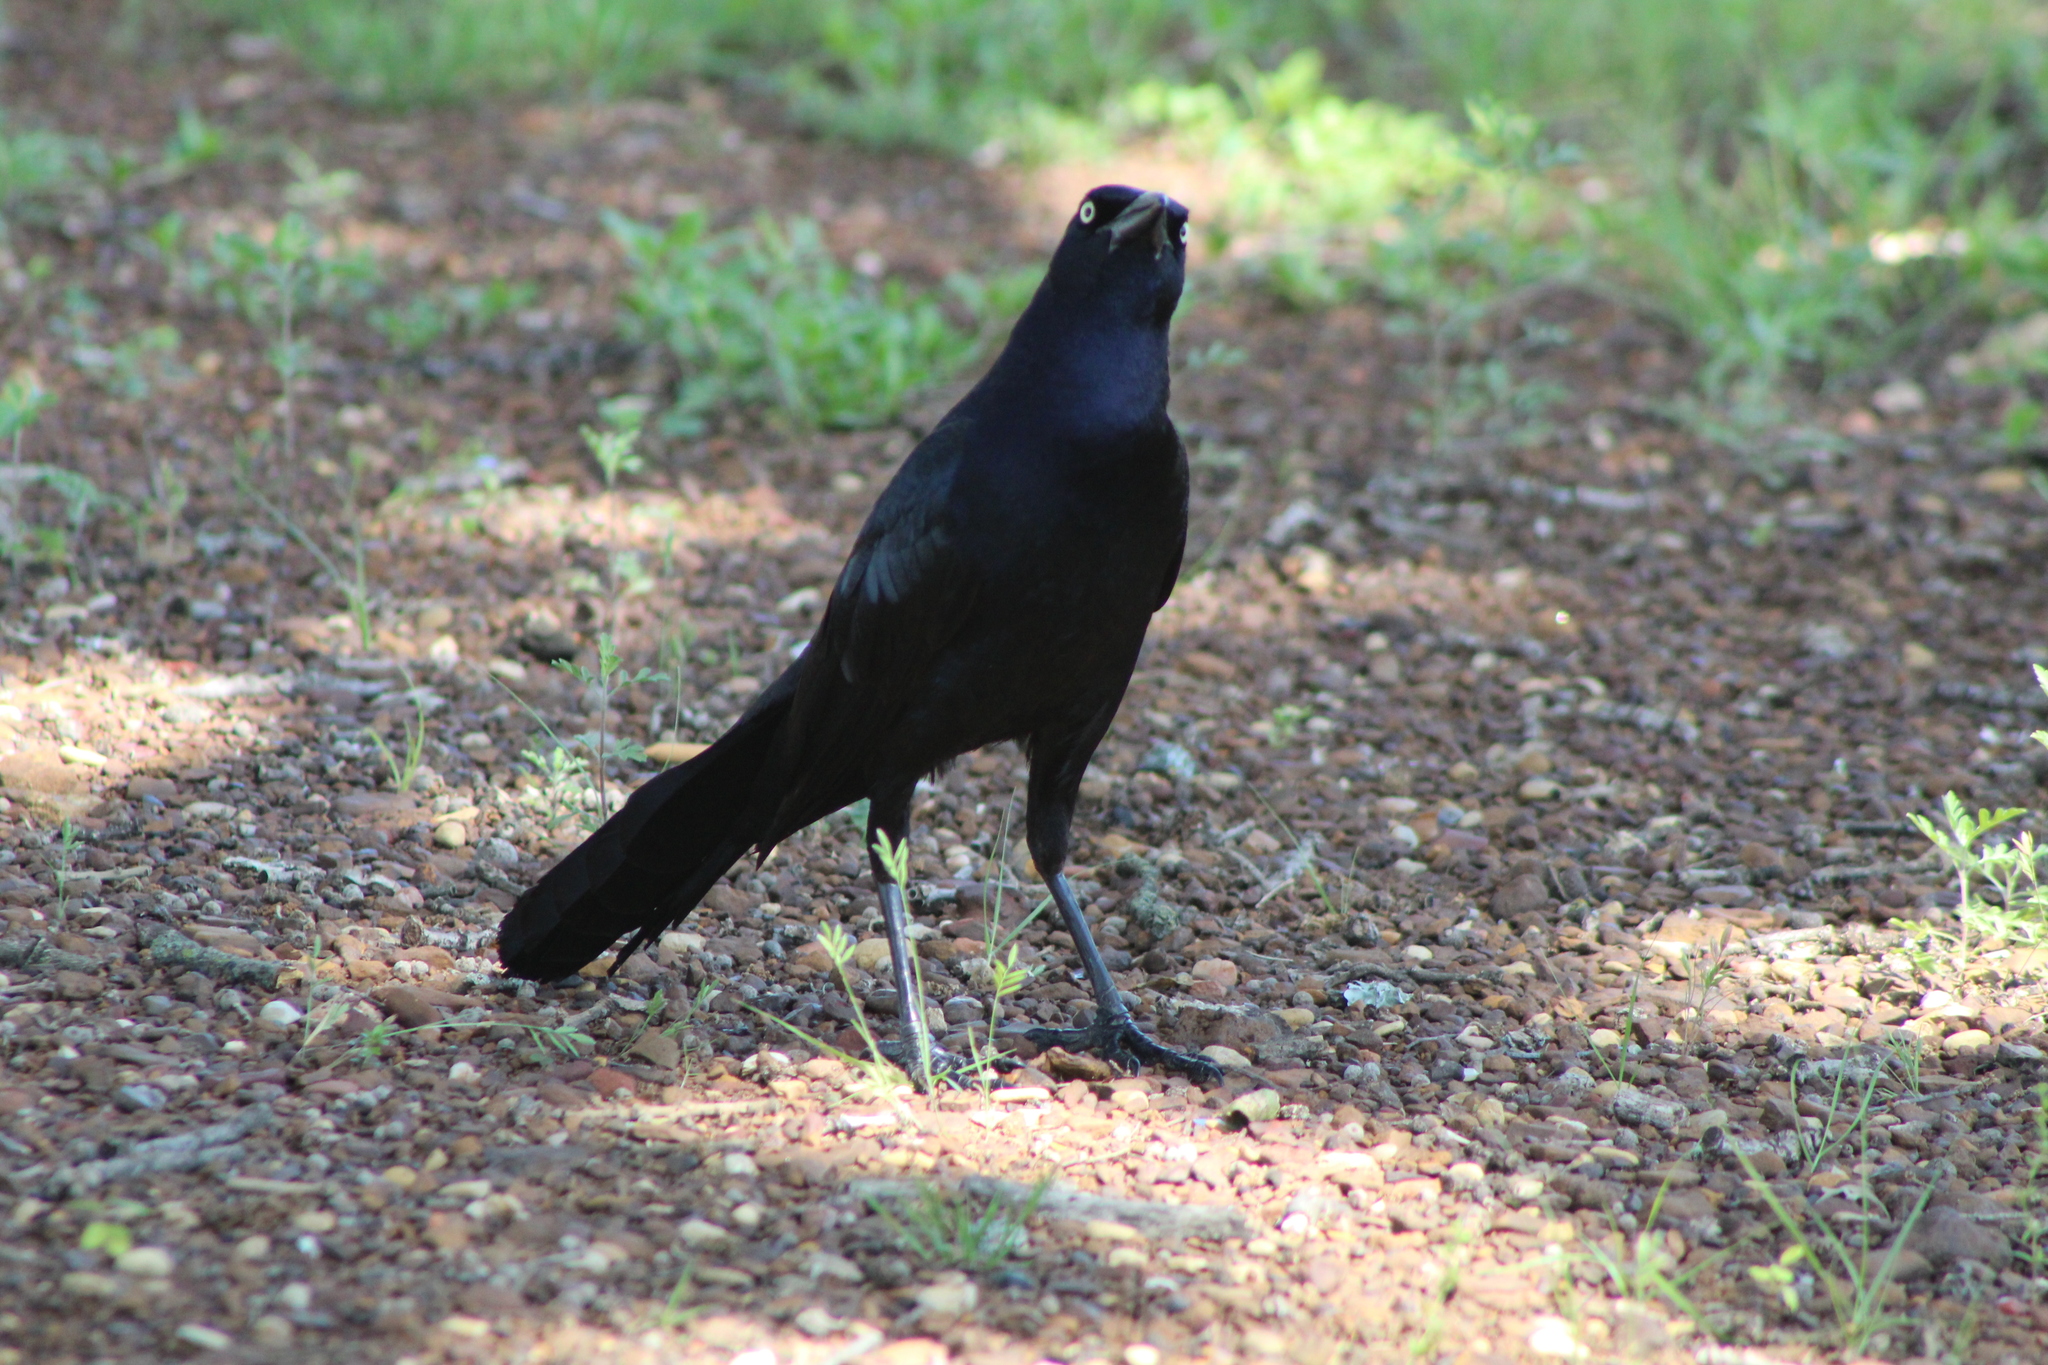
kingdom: Animalia
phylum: Chordata
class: Aves
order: Passeriformes
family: Icteridae
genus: Quiscalus
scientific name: Quiscalus mexicanus
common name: Great-tailed grackle
